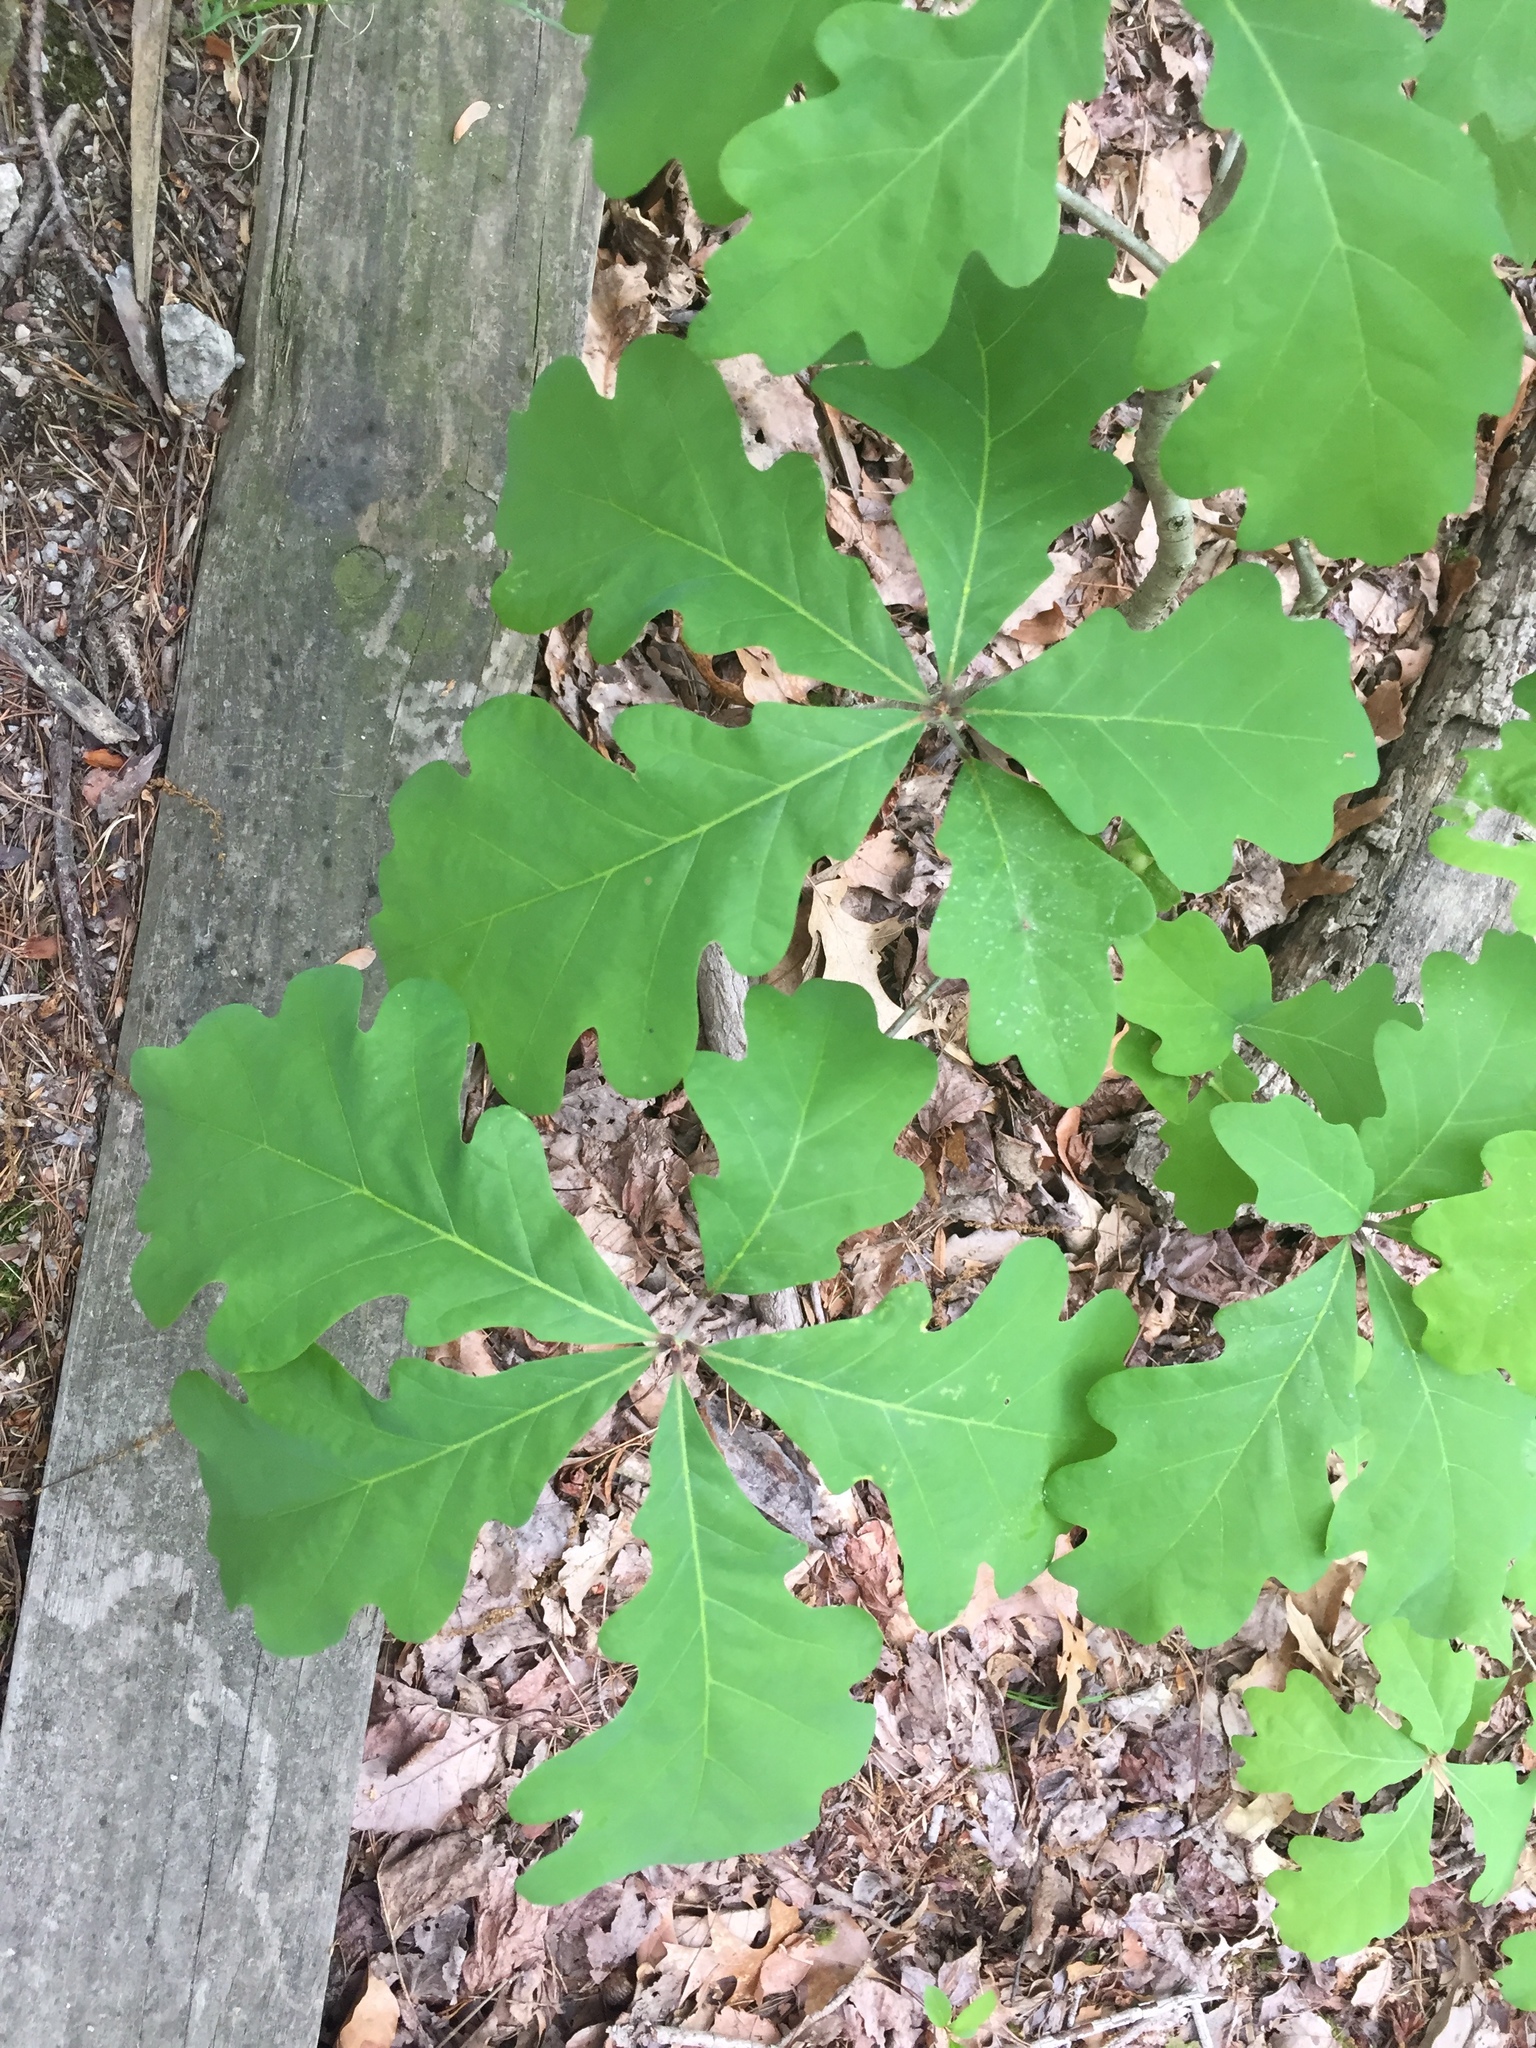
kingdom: Plantae
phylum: Tracheophyta
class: Magnoliopsida
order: Fagales
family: Fagaceae
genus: Quercus
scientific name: Quercus alba
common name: White oak
